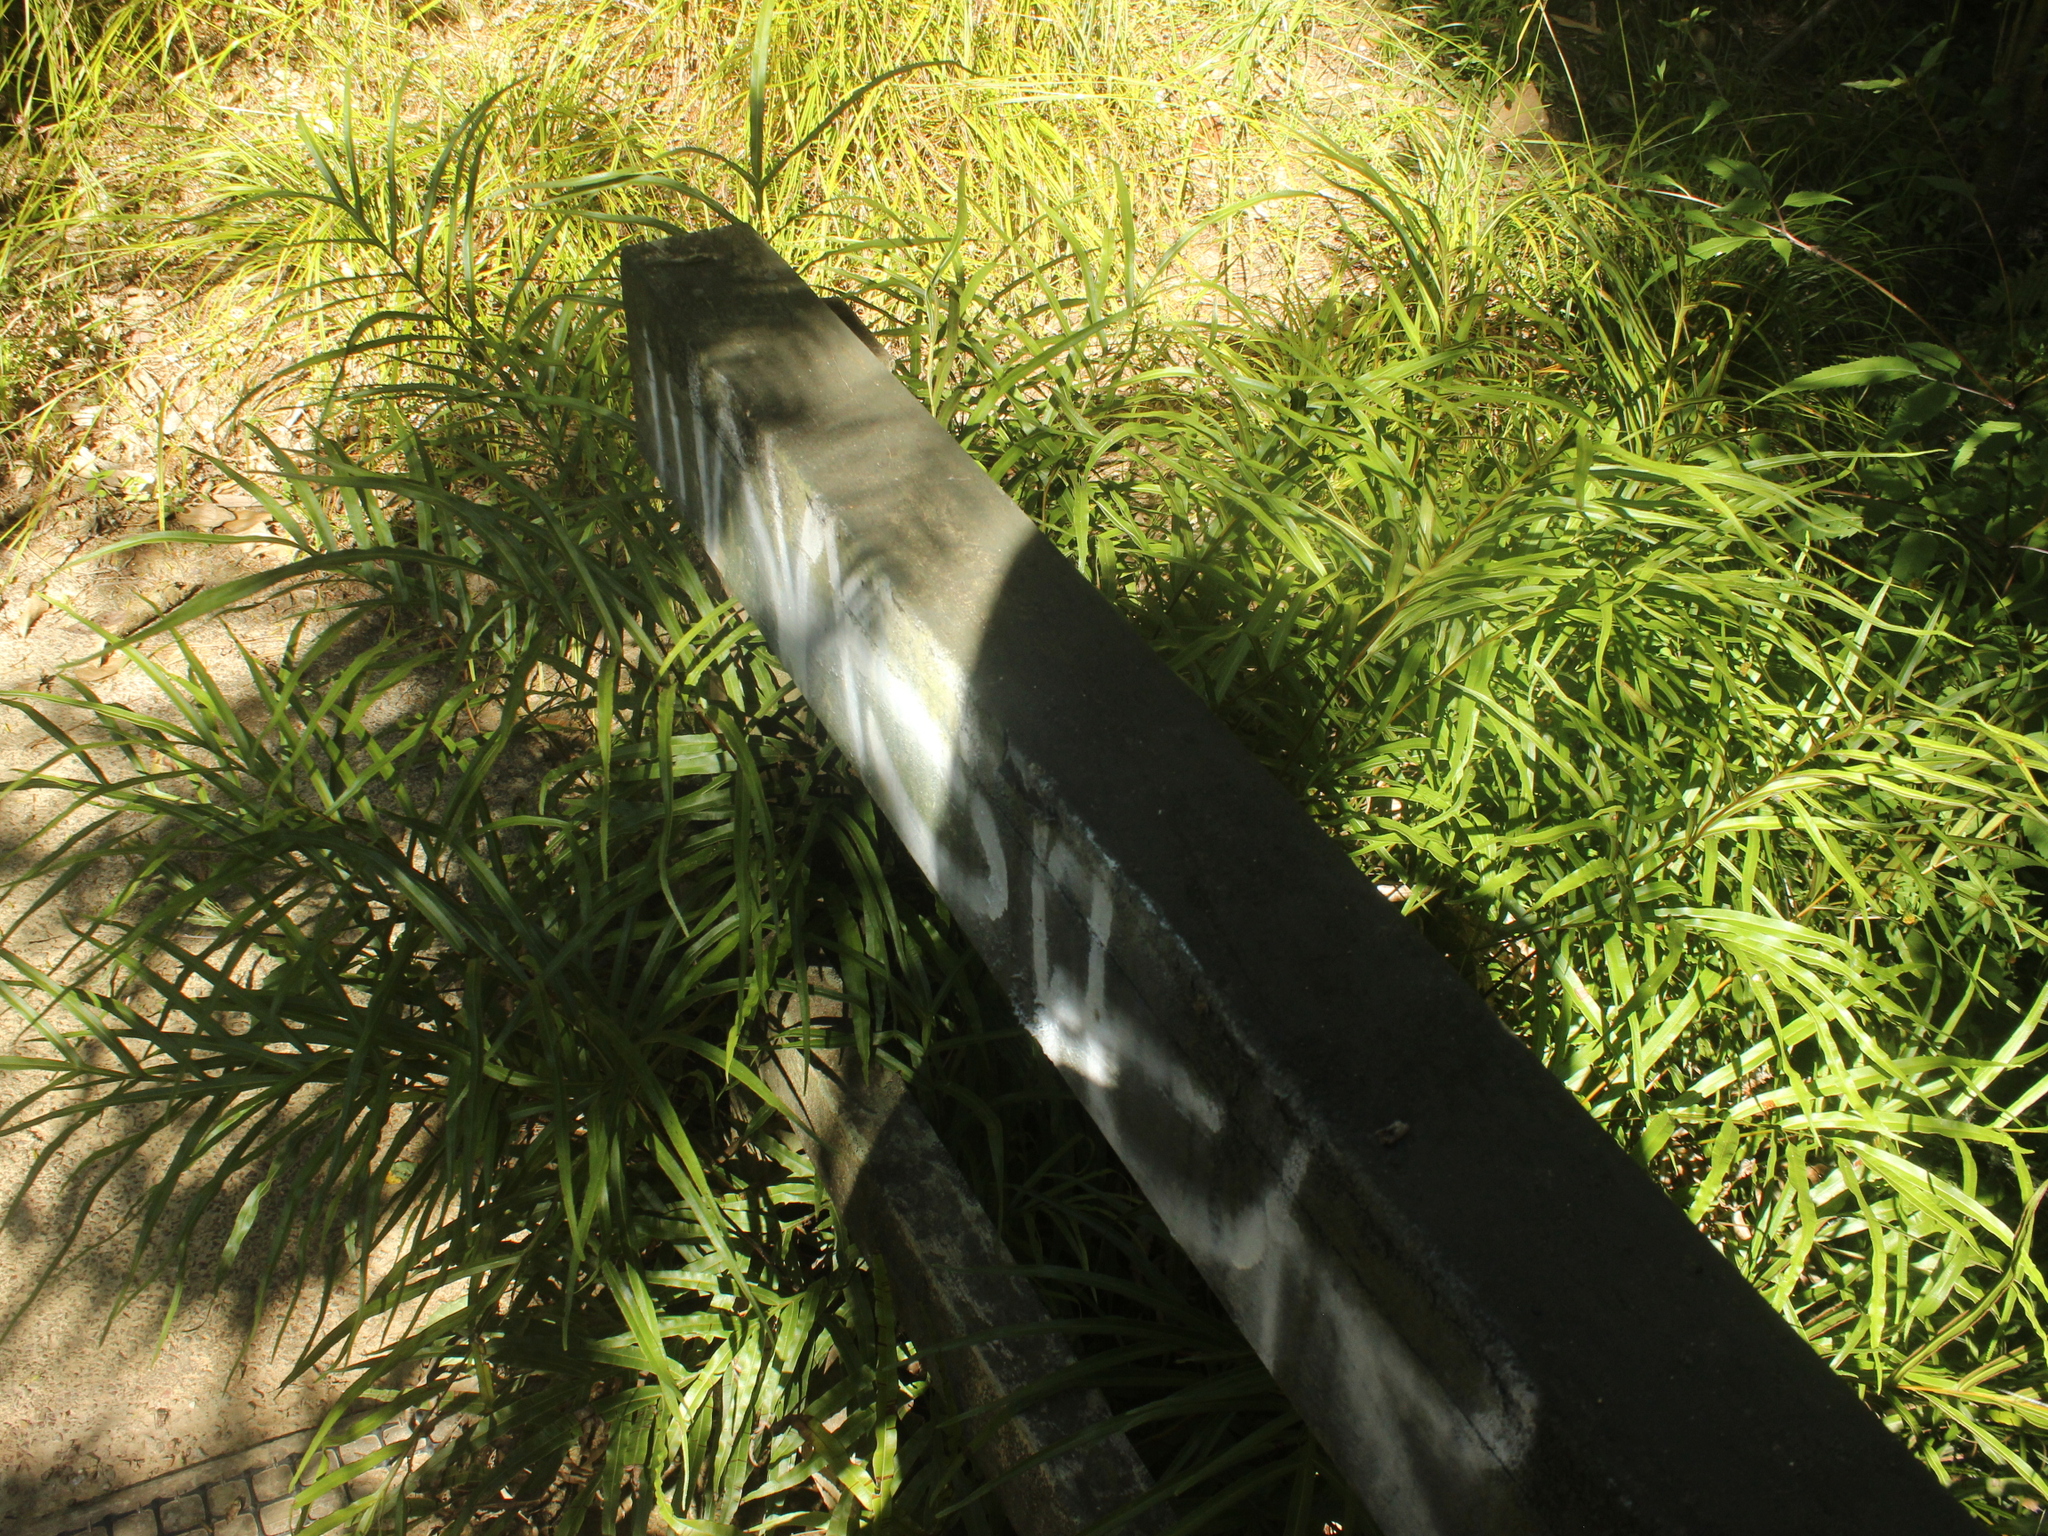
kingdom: Plantae
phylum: Tracheophyta
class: Polypodiopsida
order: Polypodiales
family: Pteridaceae
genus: Pteris
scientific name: Pteris cretica
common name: Ribbon fern
